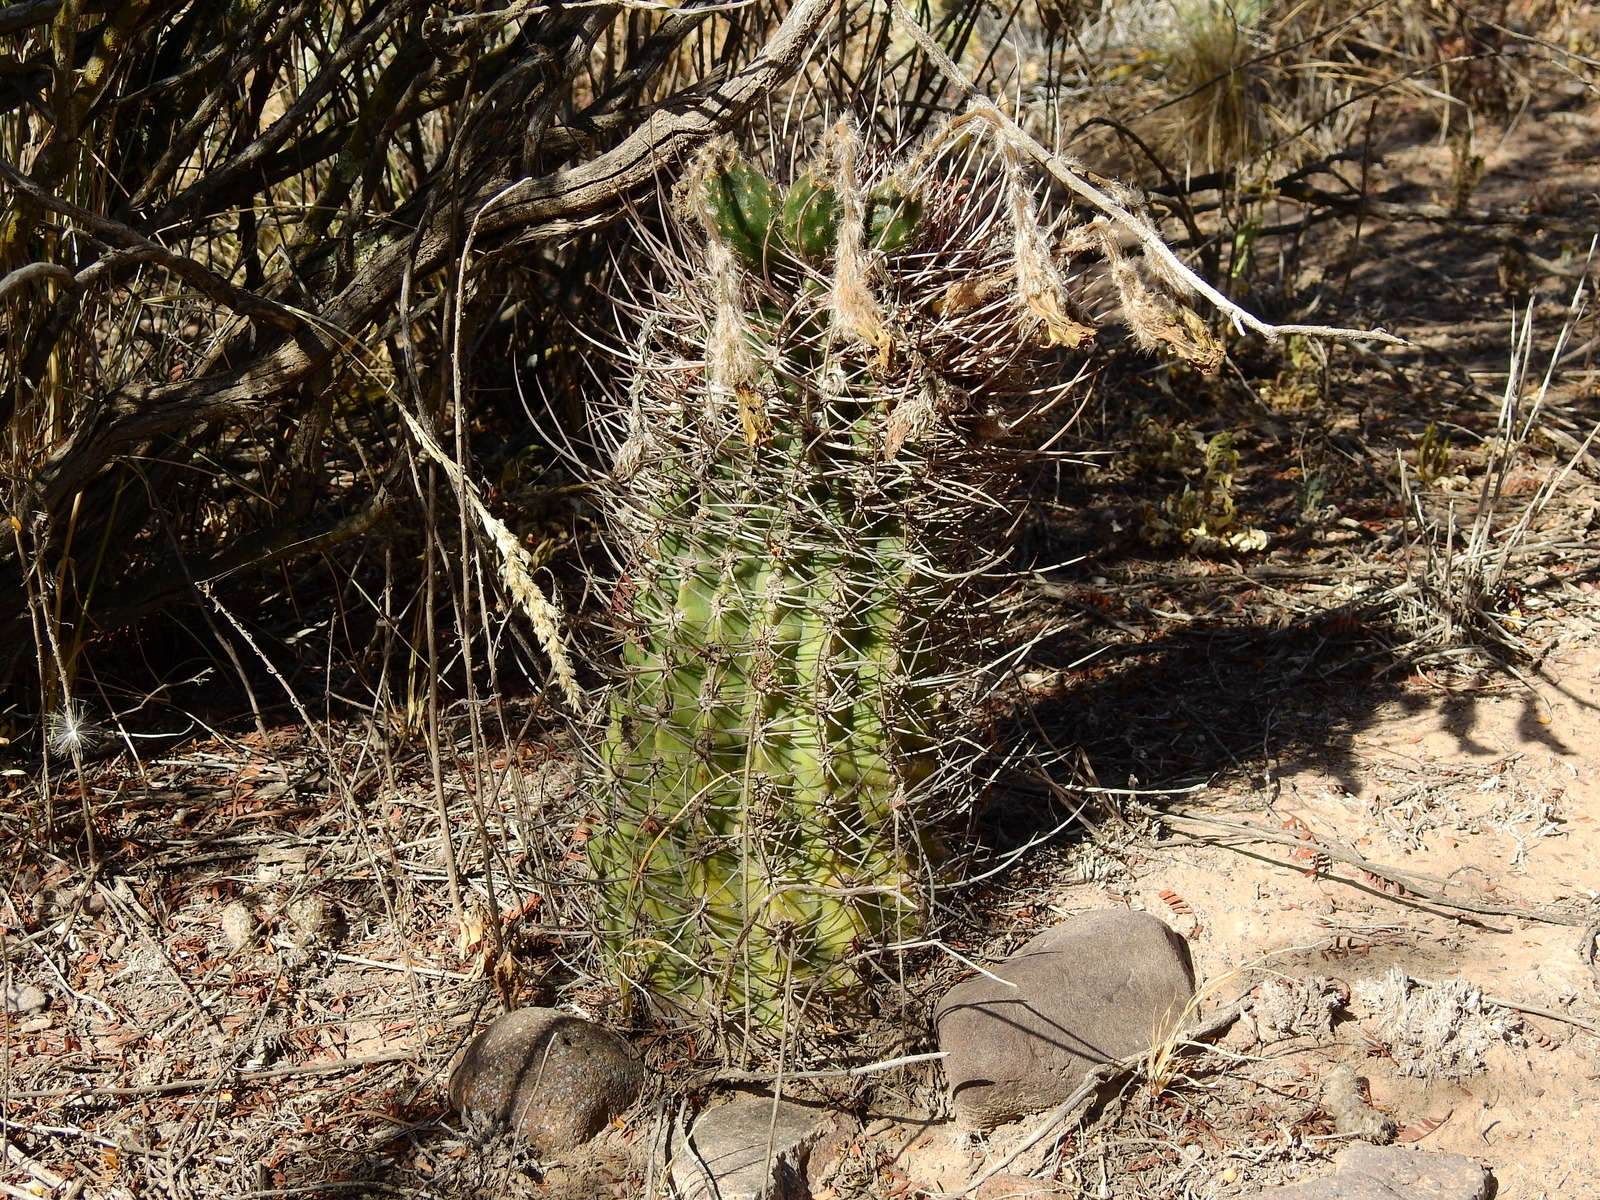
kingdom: Plantae
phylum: Tracheophyta
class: Magnoliopsida
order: Caryophyllales
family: Cactaceae
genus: Acanthocalycium
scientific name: Acanthocalycium leucanthum
